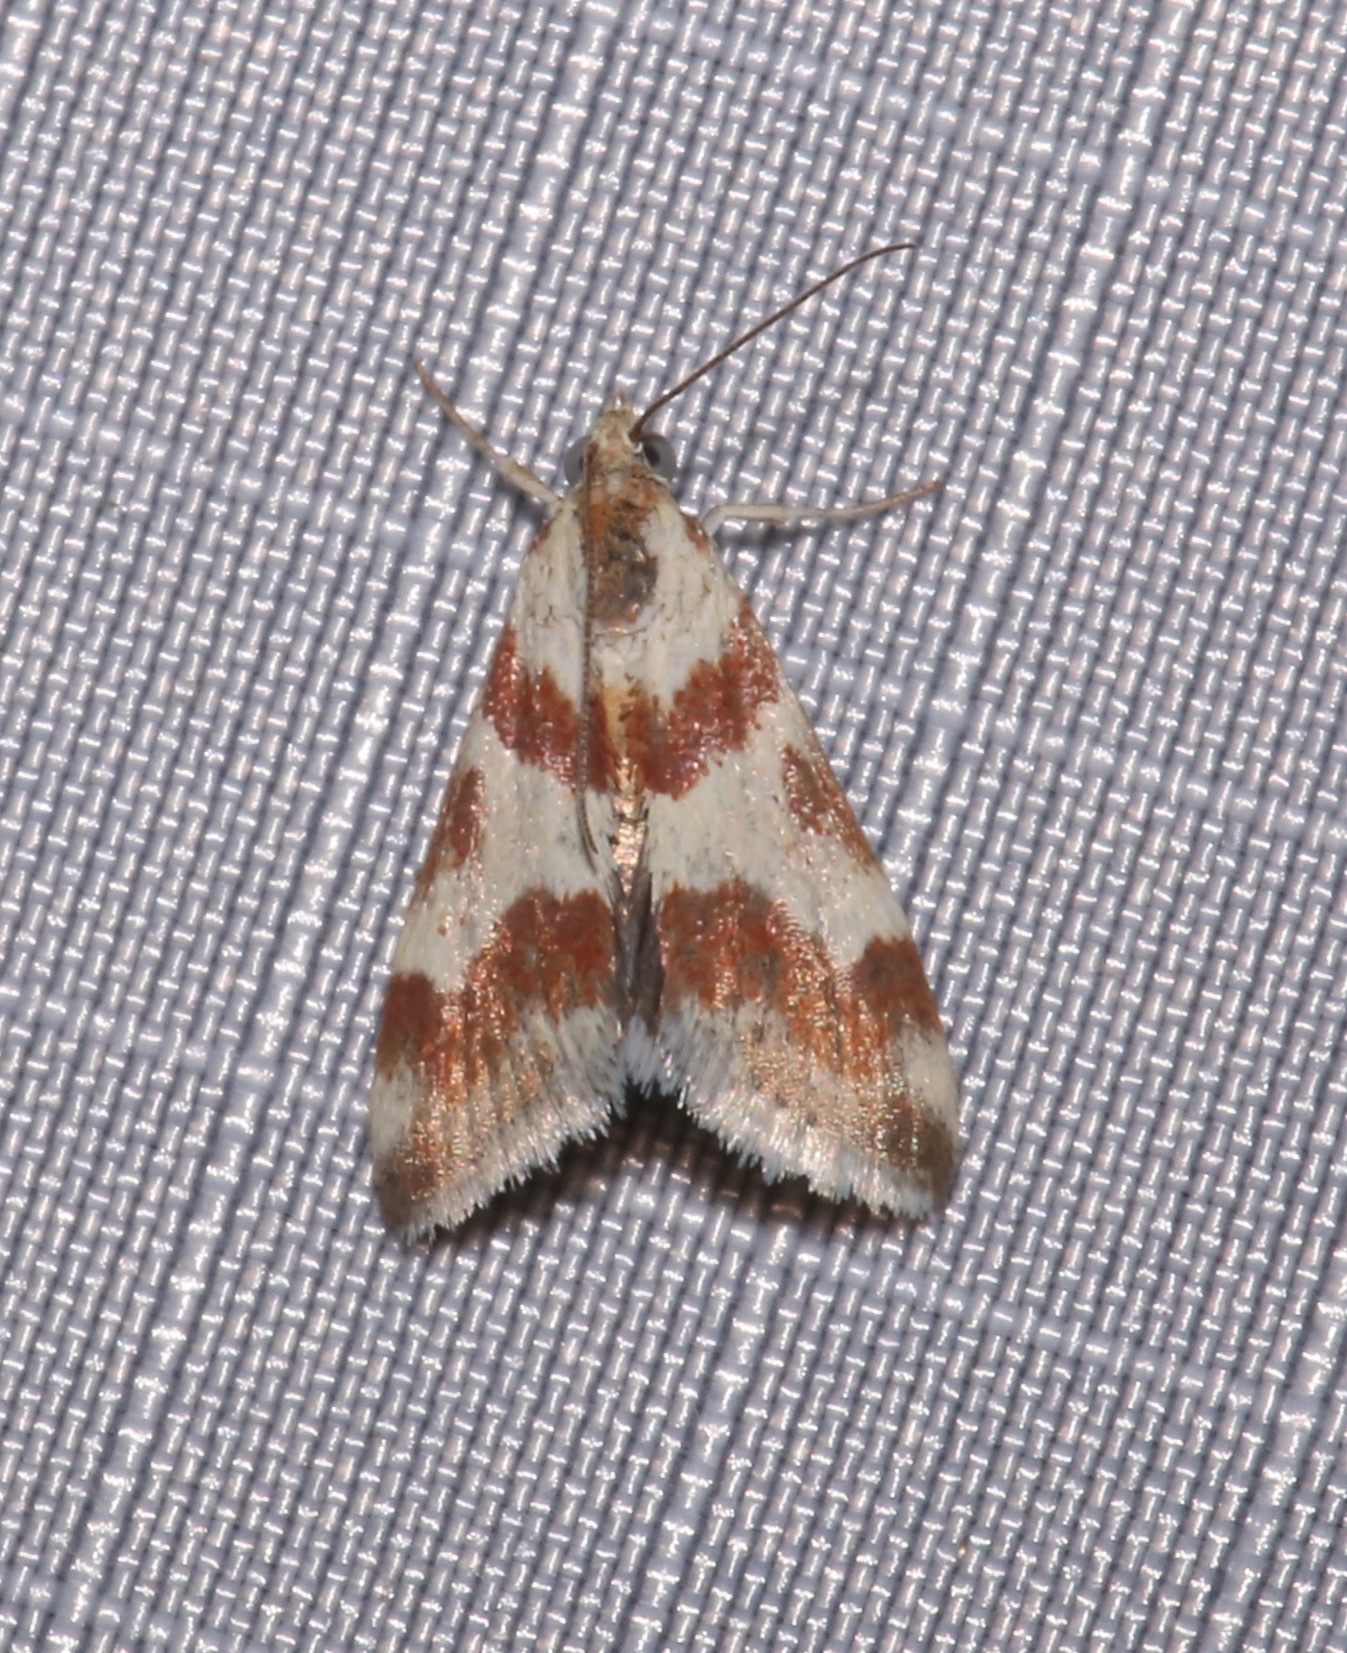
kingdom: Animalia
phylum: Arthropoda
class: Insecta
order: Lepidoptera
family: Crambidae
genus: Noctuelia
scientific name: Noctuelia Mimoschinia rufofascialis
